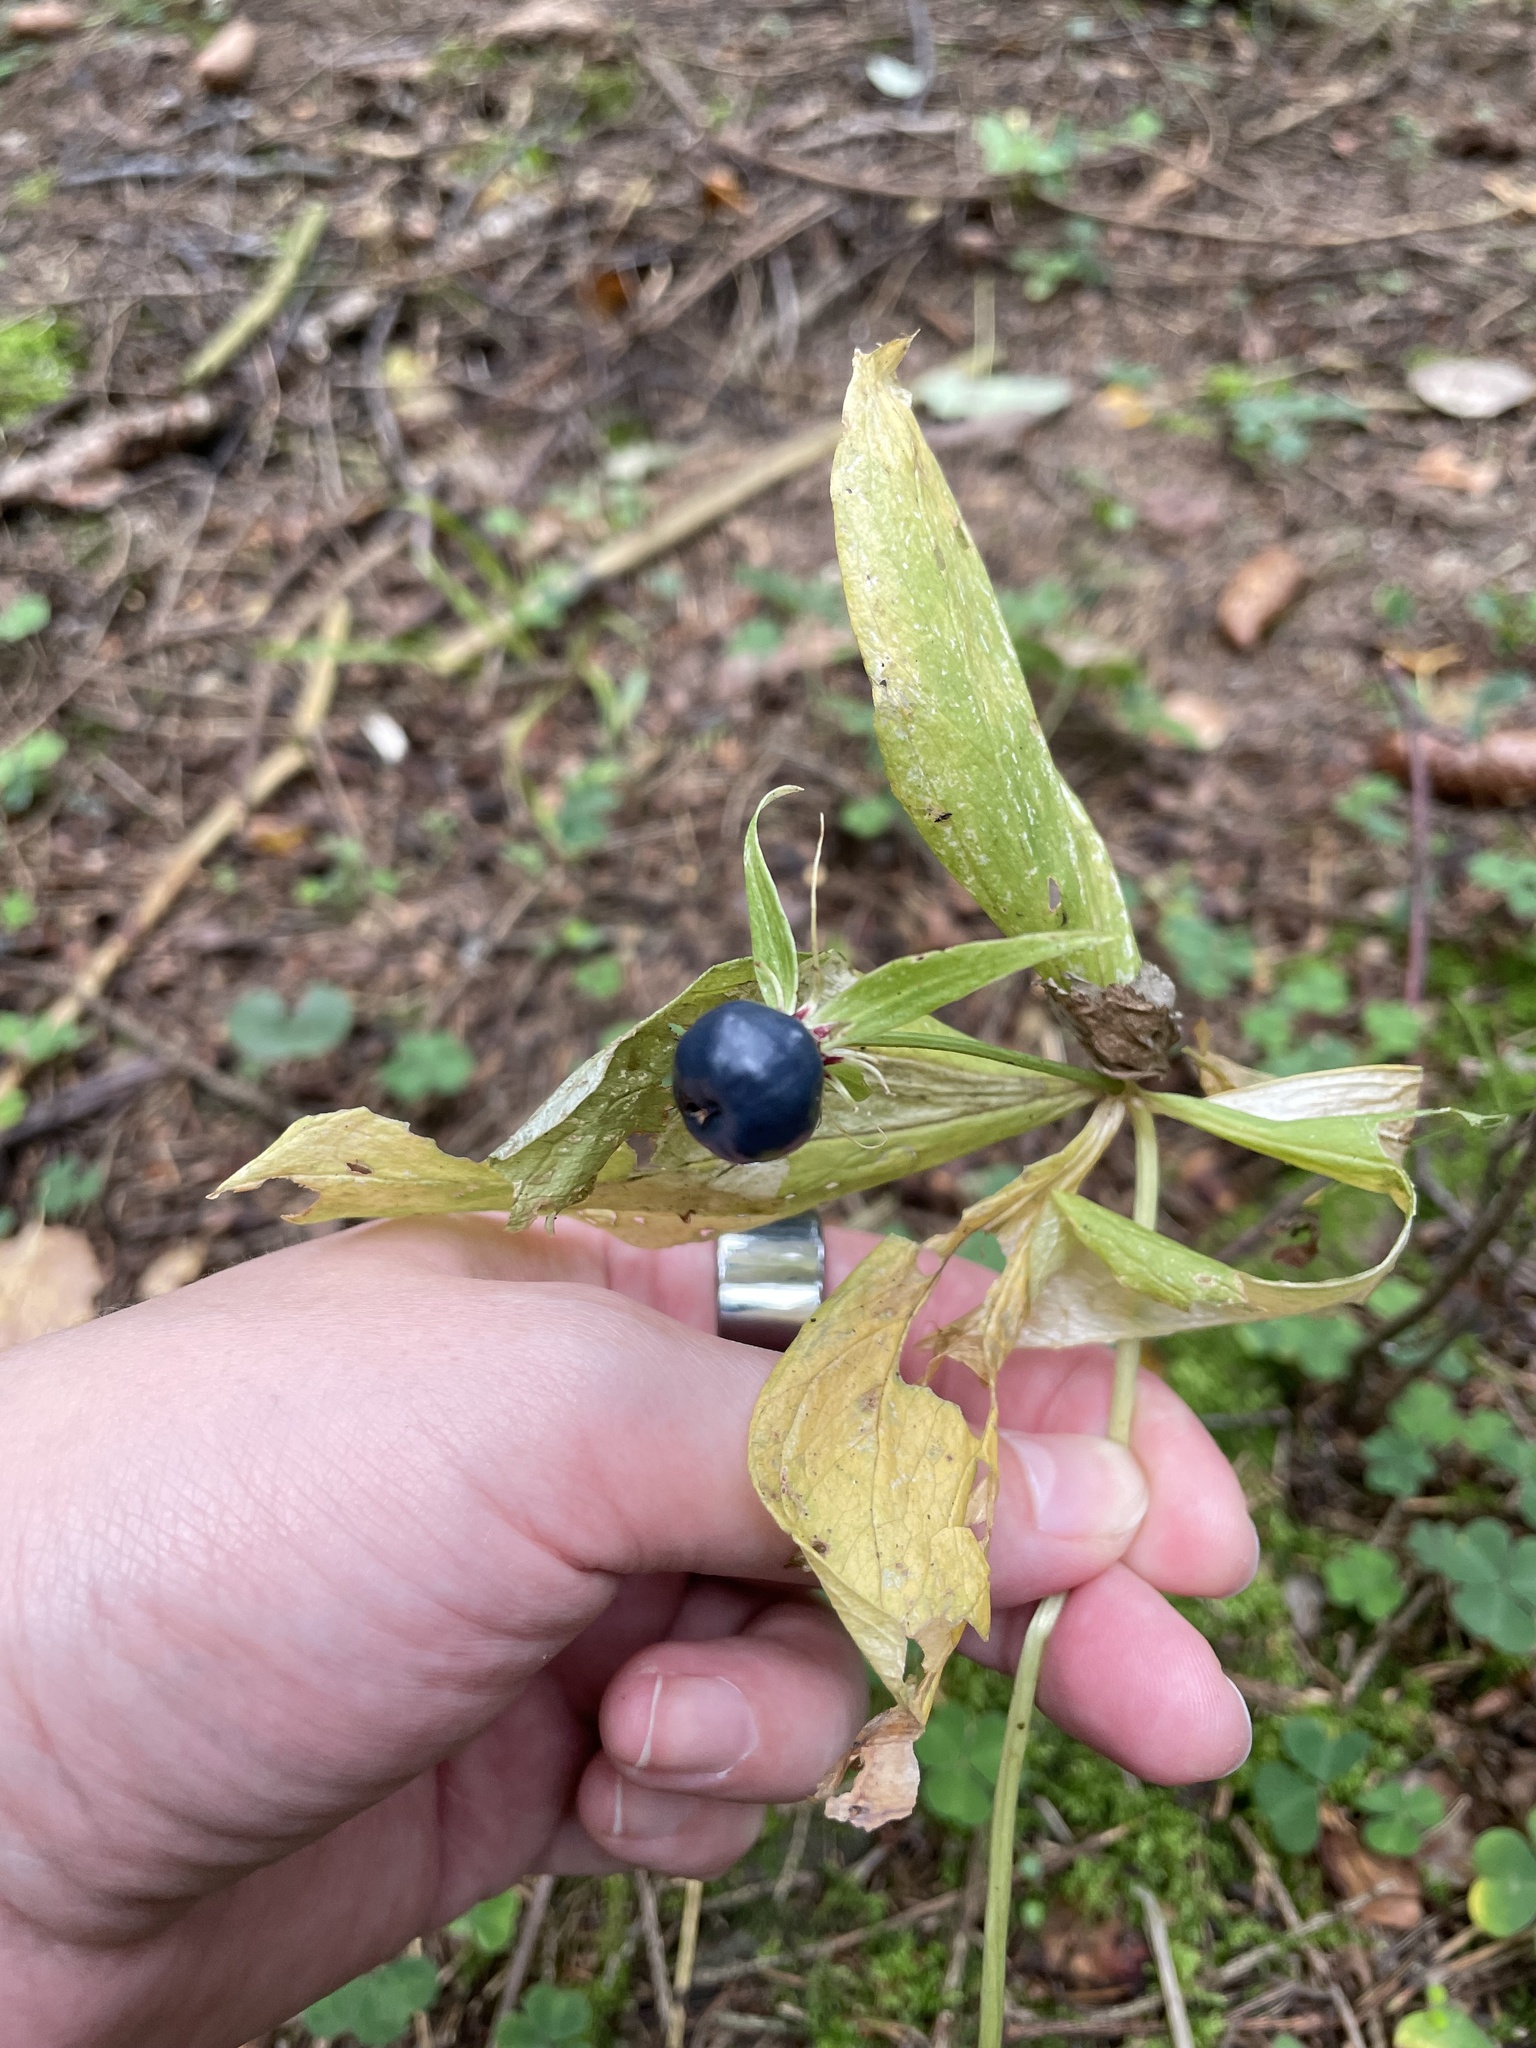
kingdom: Plantae
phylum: Tracheophyta
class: Liliopsida
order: Liliales
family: Melanthiaceae
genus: Paris
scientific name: Paris quadrifolia
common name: Herb-paris
